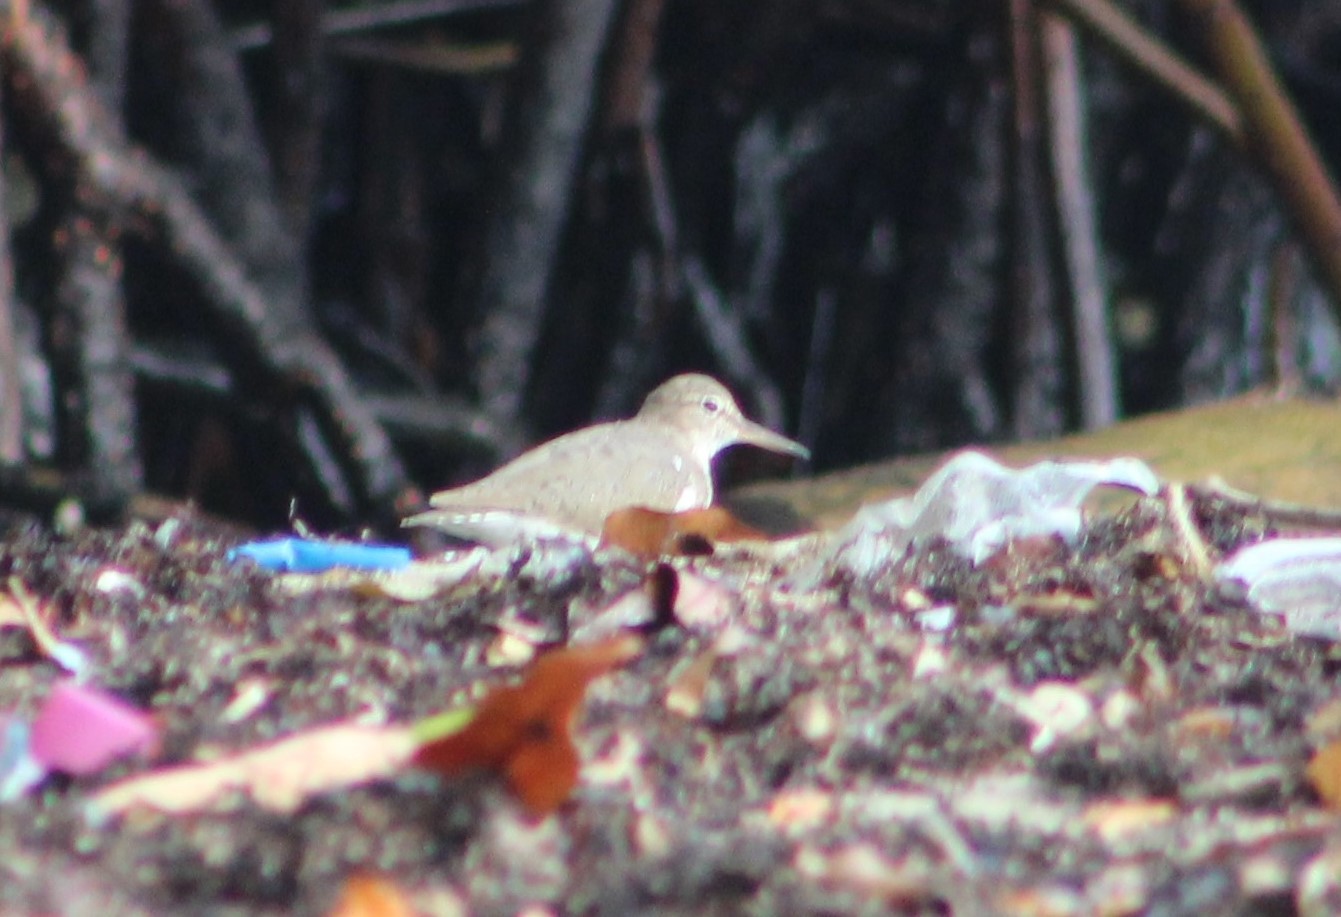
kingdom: Animalia
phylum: Chordata
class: Aves
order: Charadriiformes
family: Scolopacidae
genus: Actitis
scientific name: Actitis macularius
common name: Spotted sandpiper
